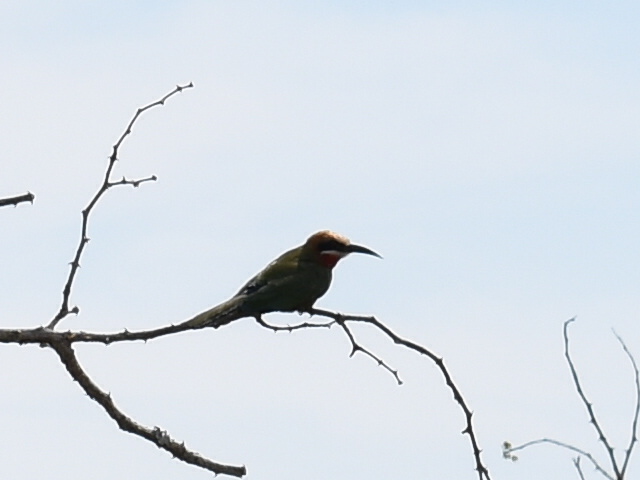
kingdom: Animalia
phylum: Chordata
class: Aves
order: Coraciiformes
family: Meropidae
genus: Merops
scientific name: Merops bullockoides
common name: White-fronted bee-eater
